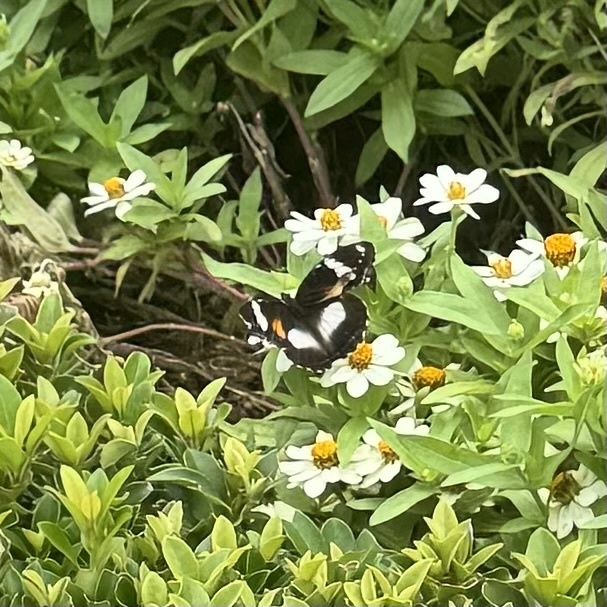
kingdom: Animalia
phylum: Arthropoda
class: Insecta
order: Lepidoptera
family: Nymphalidae
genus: Hypolimnas
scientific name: Hypolimnas bolina
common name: Great eggfly
